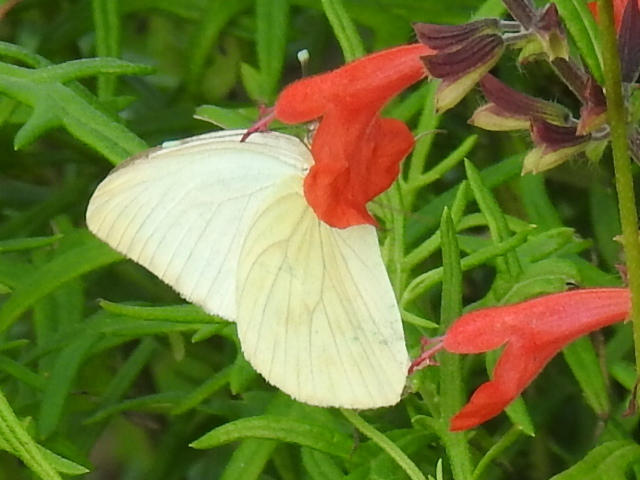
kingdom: Animalia
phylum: Arthropoda
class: Insecta
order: Lepidoptera
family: Pieridae
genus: Ascia
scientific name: Ascia monuste
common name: Great southern white
